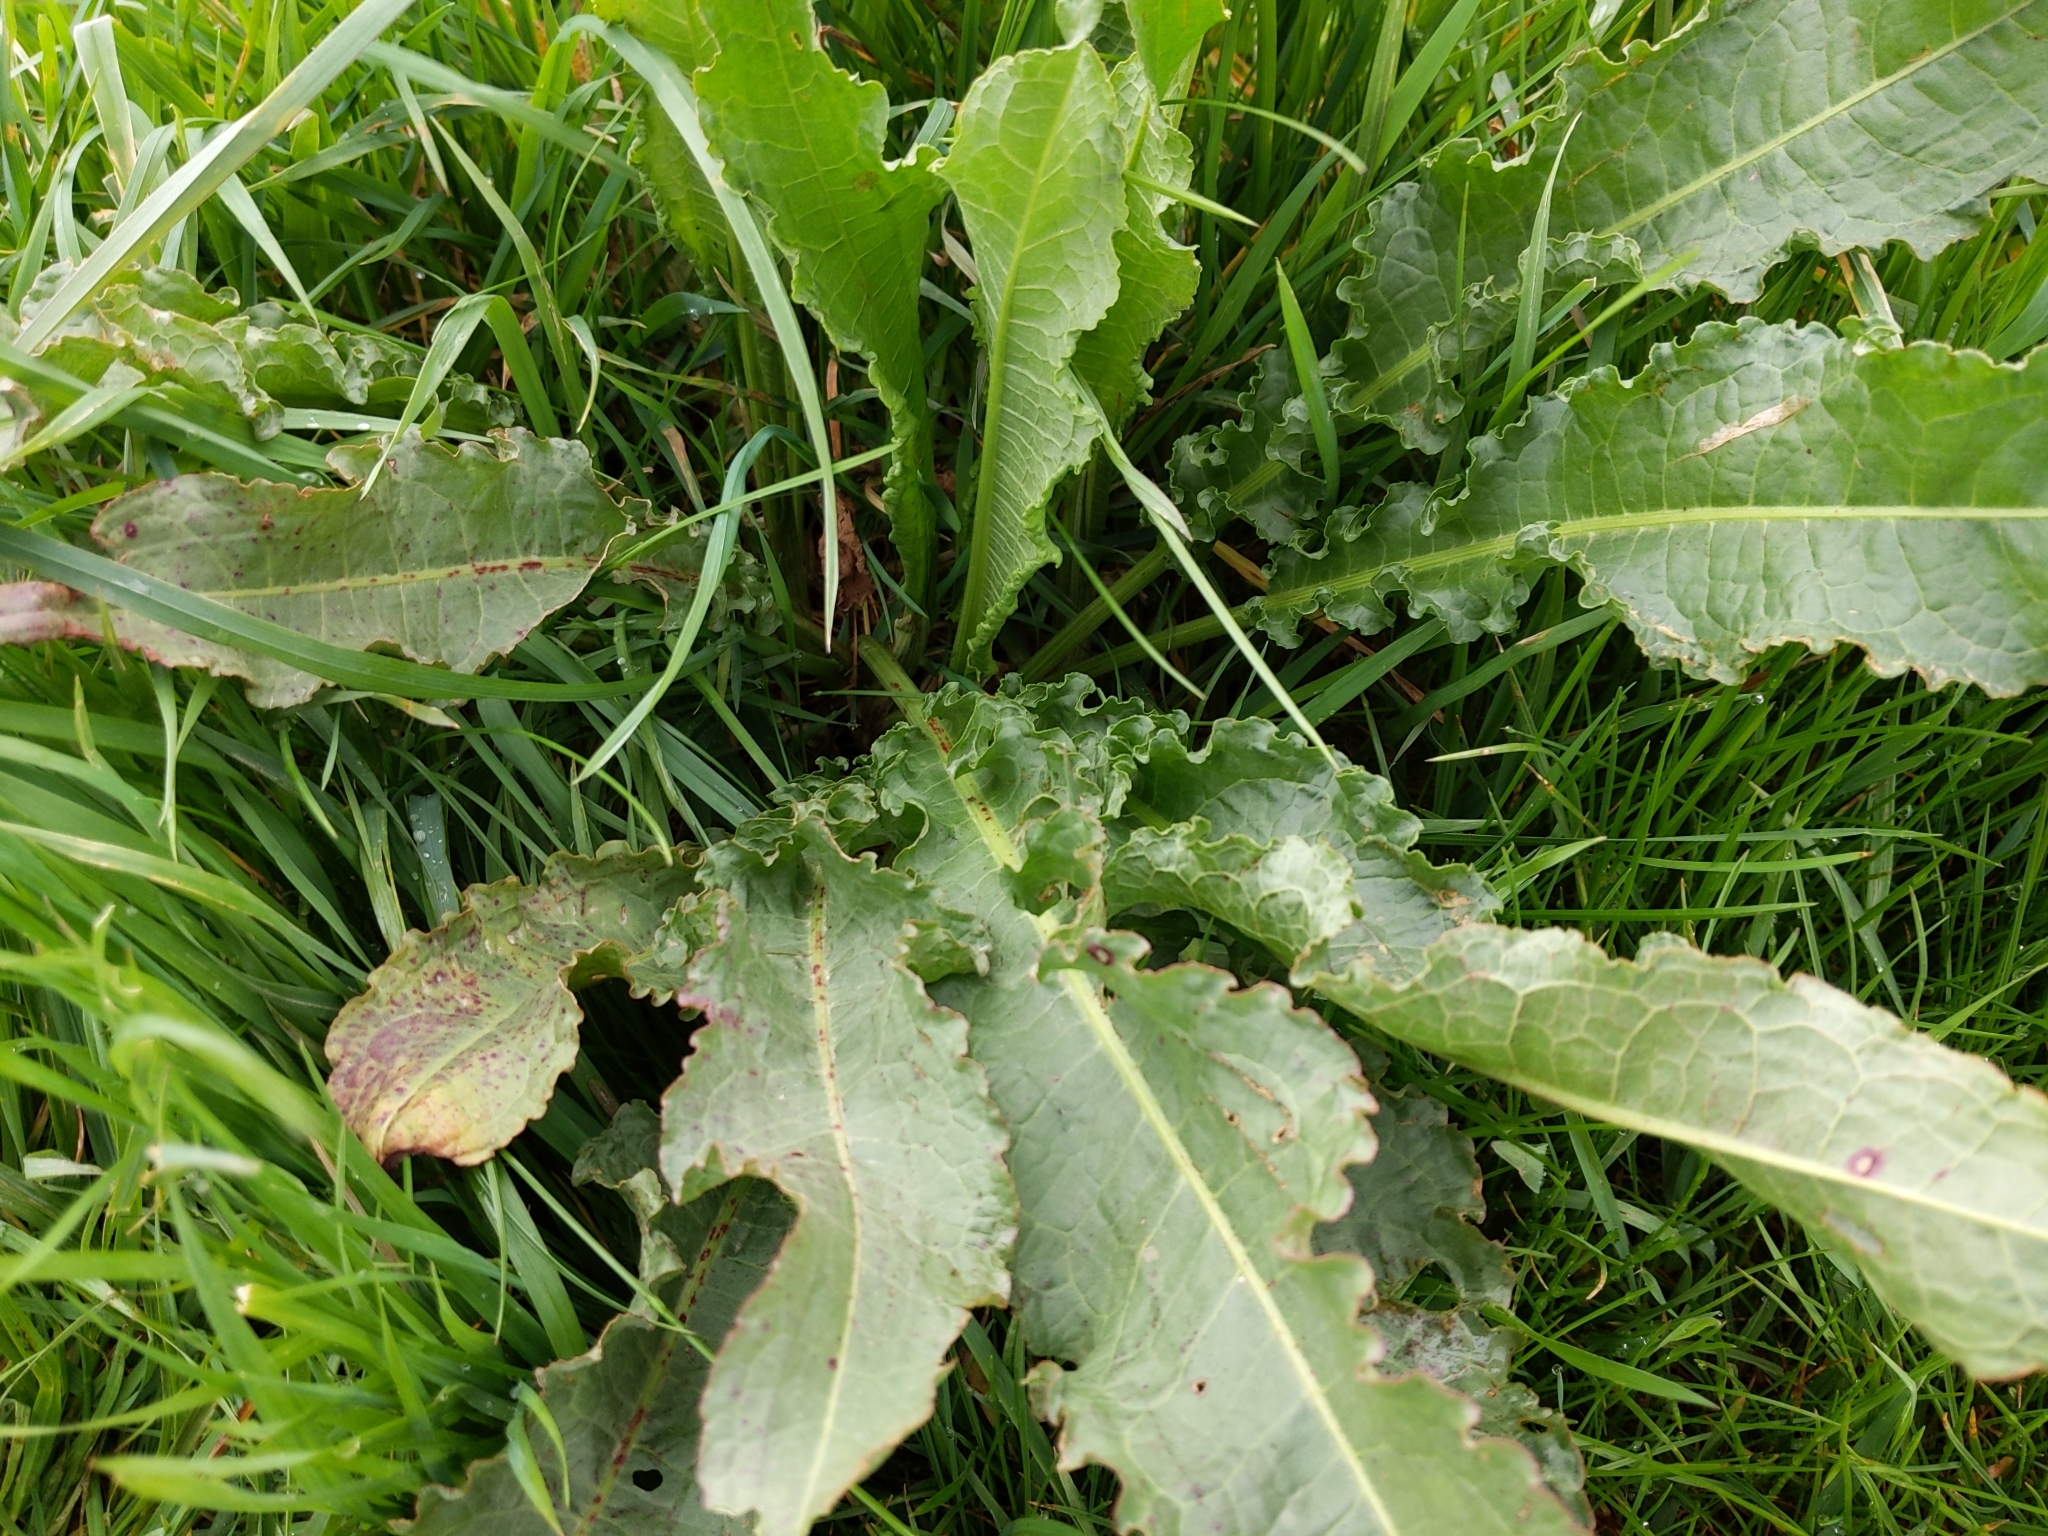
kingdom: Plantae
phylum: Tracheophyta
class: Magnoliopsida
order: Caryophyllales
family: Polygonaceae
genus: Rumex
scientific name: Rumex crispus
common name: Curled dock
